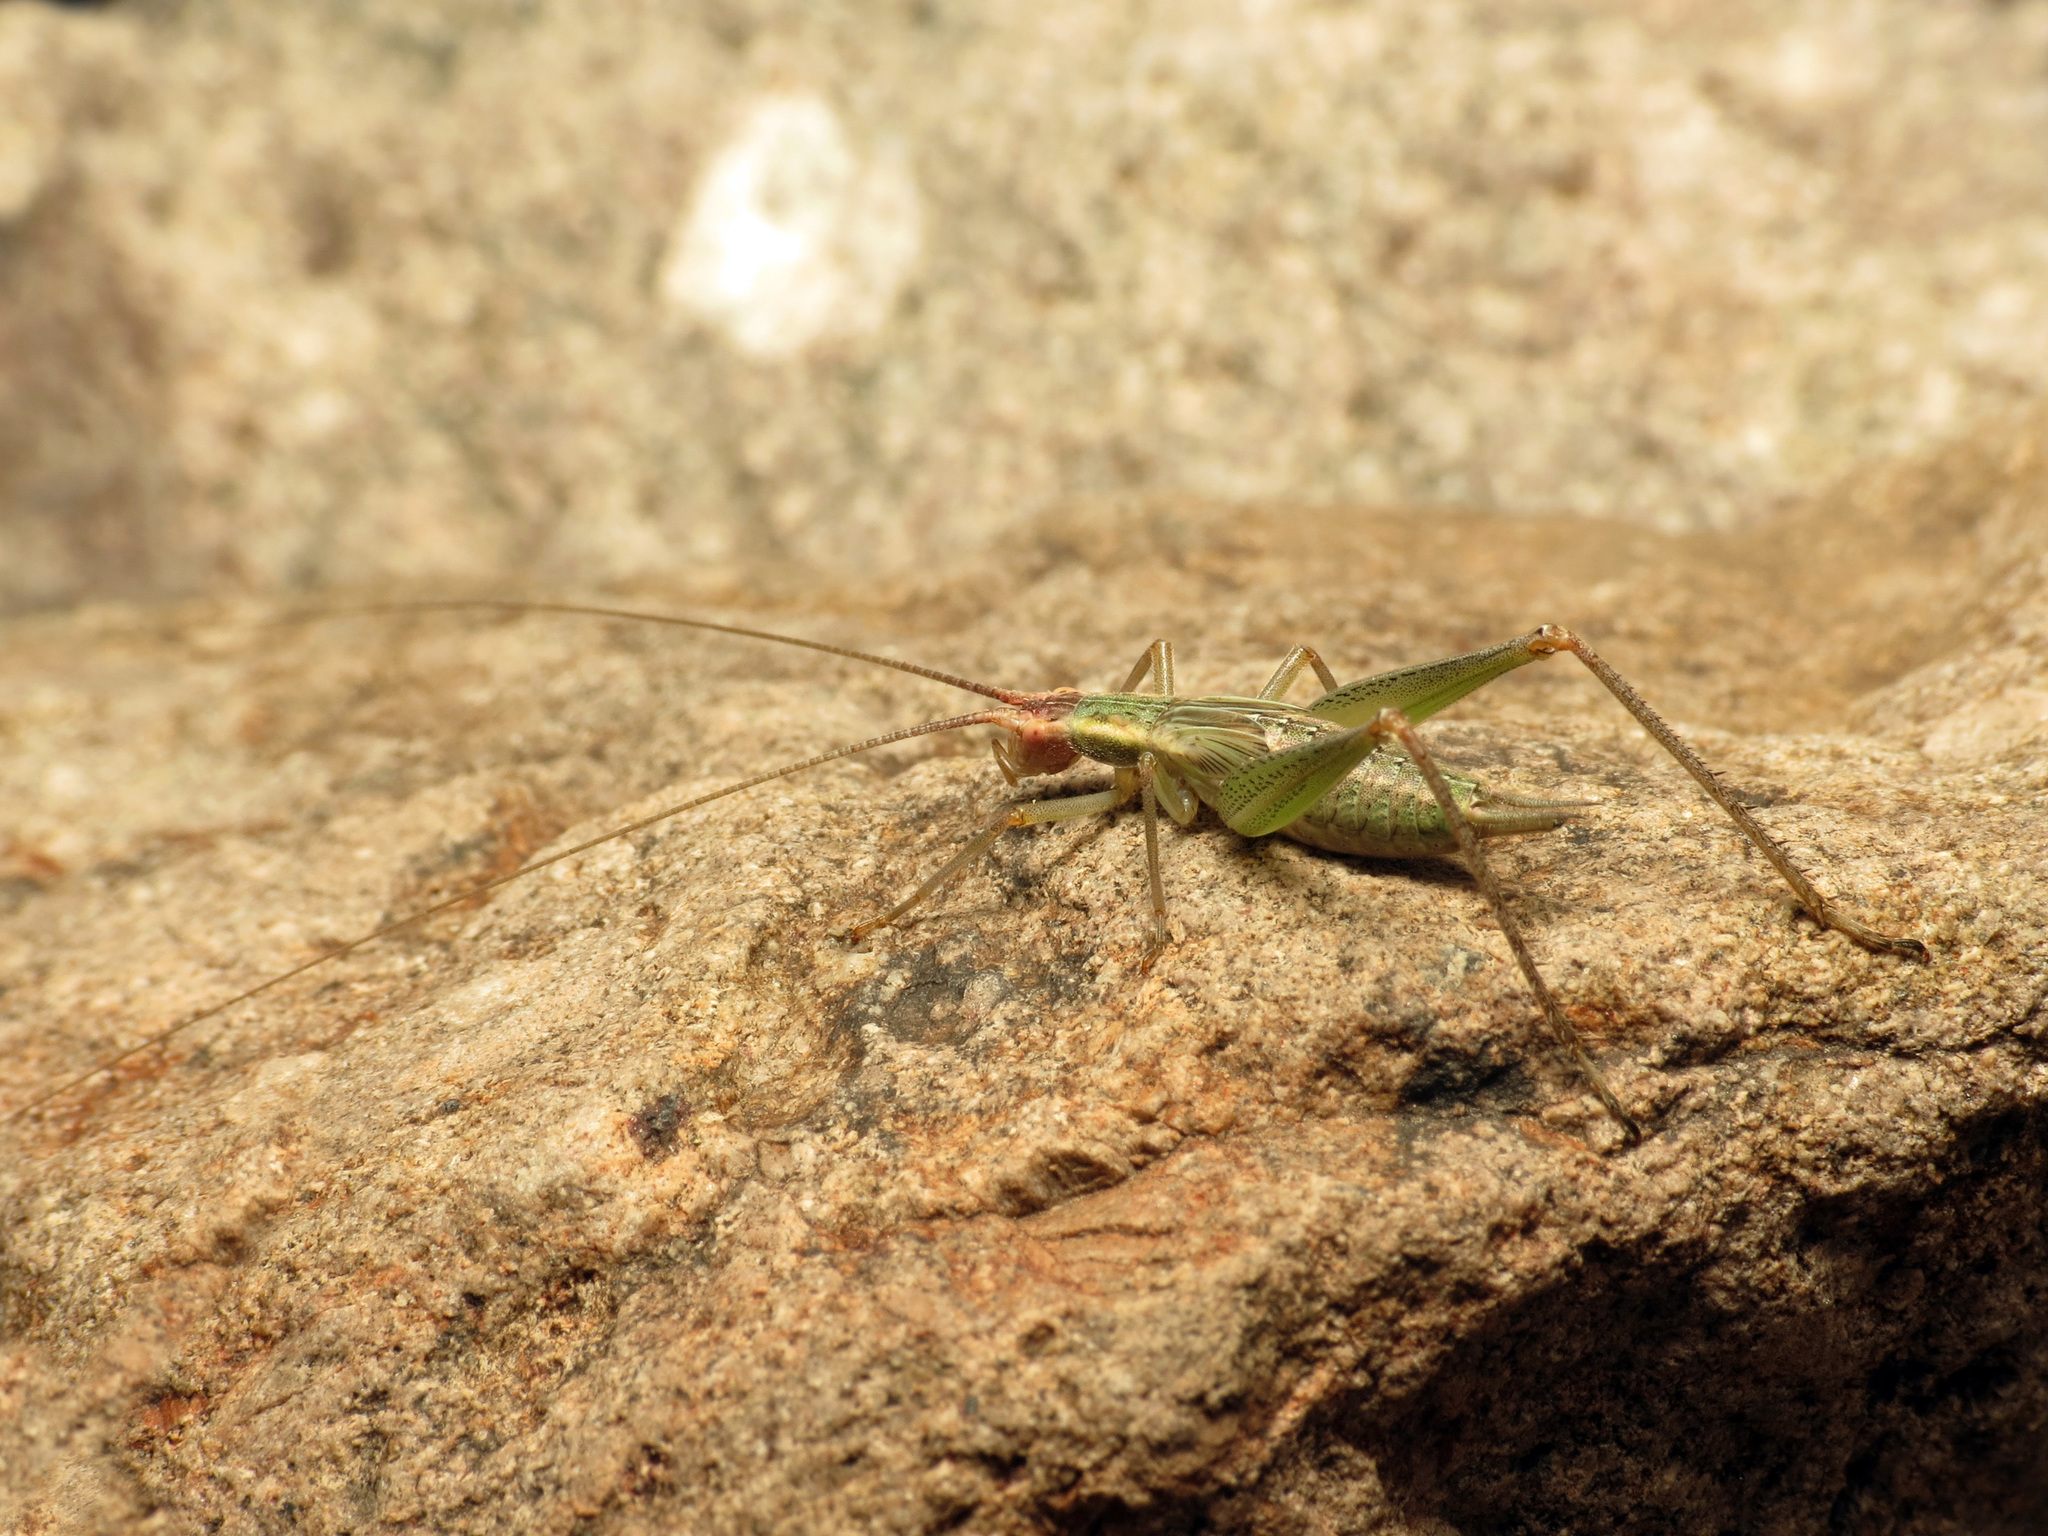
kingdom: Animalia
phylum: Arthropoda
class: Insecta
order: Orthoptera
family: Gryllidae
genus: Oecanthus
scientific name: Oecanthus californicus
